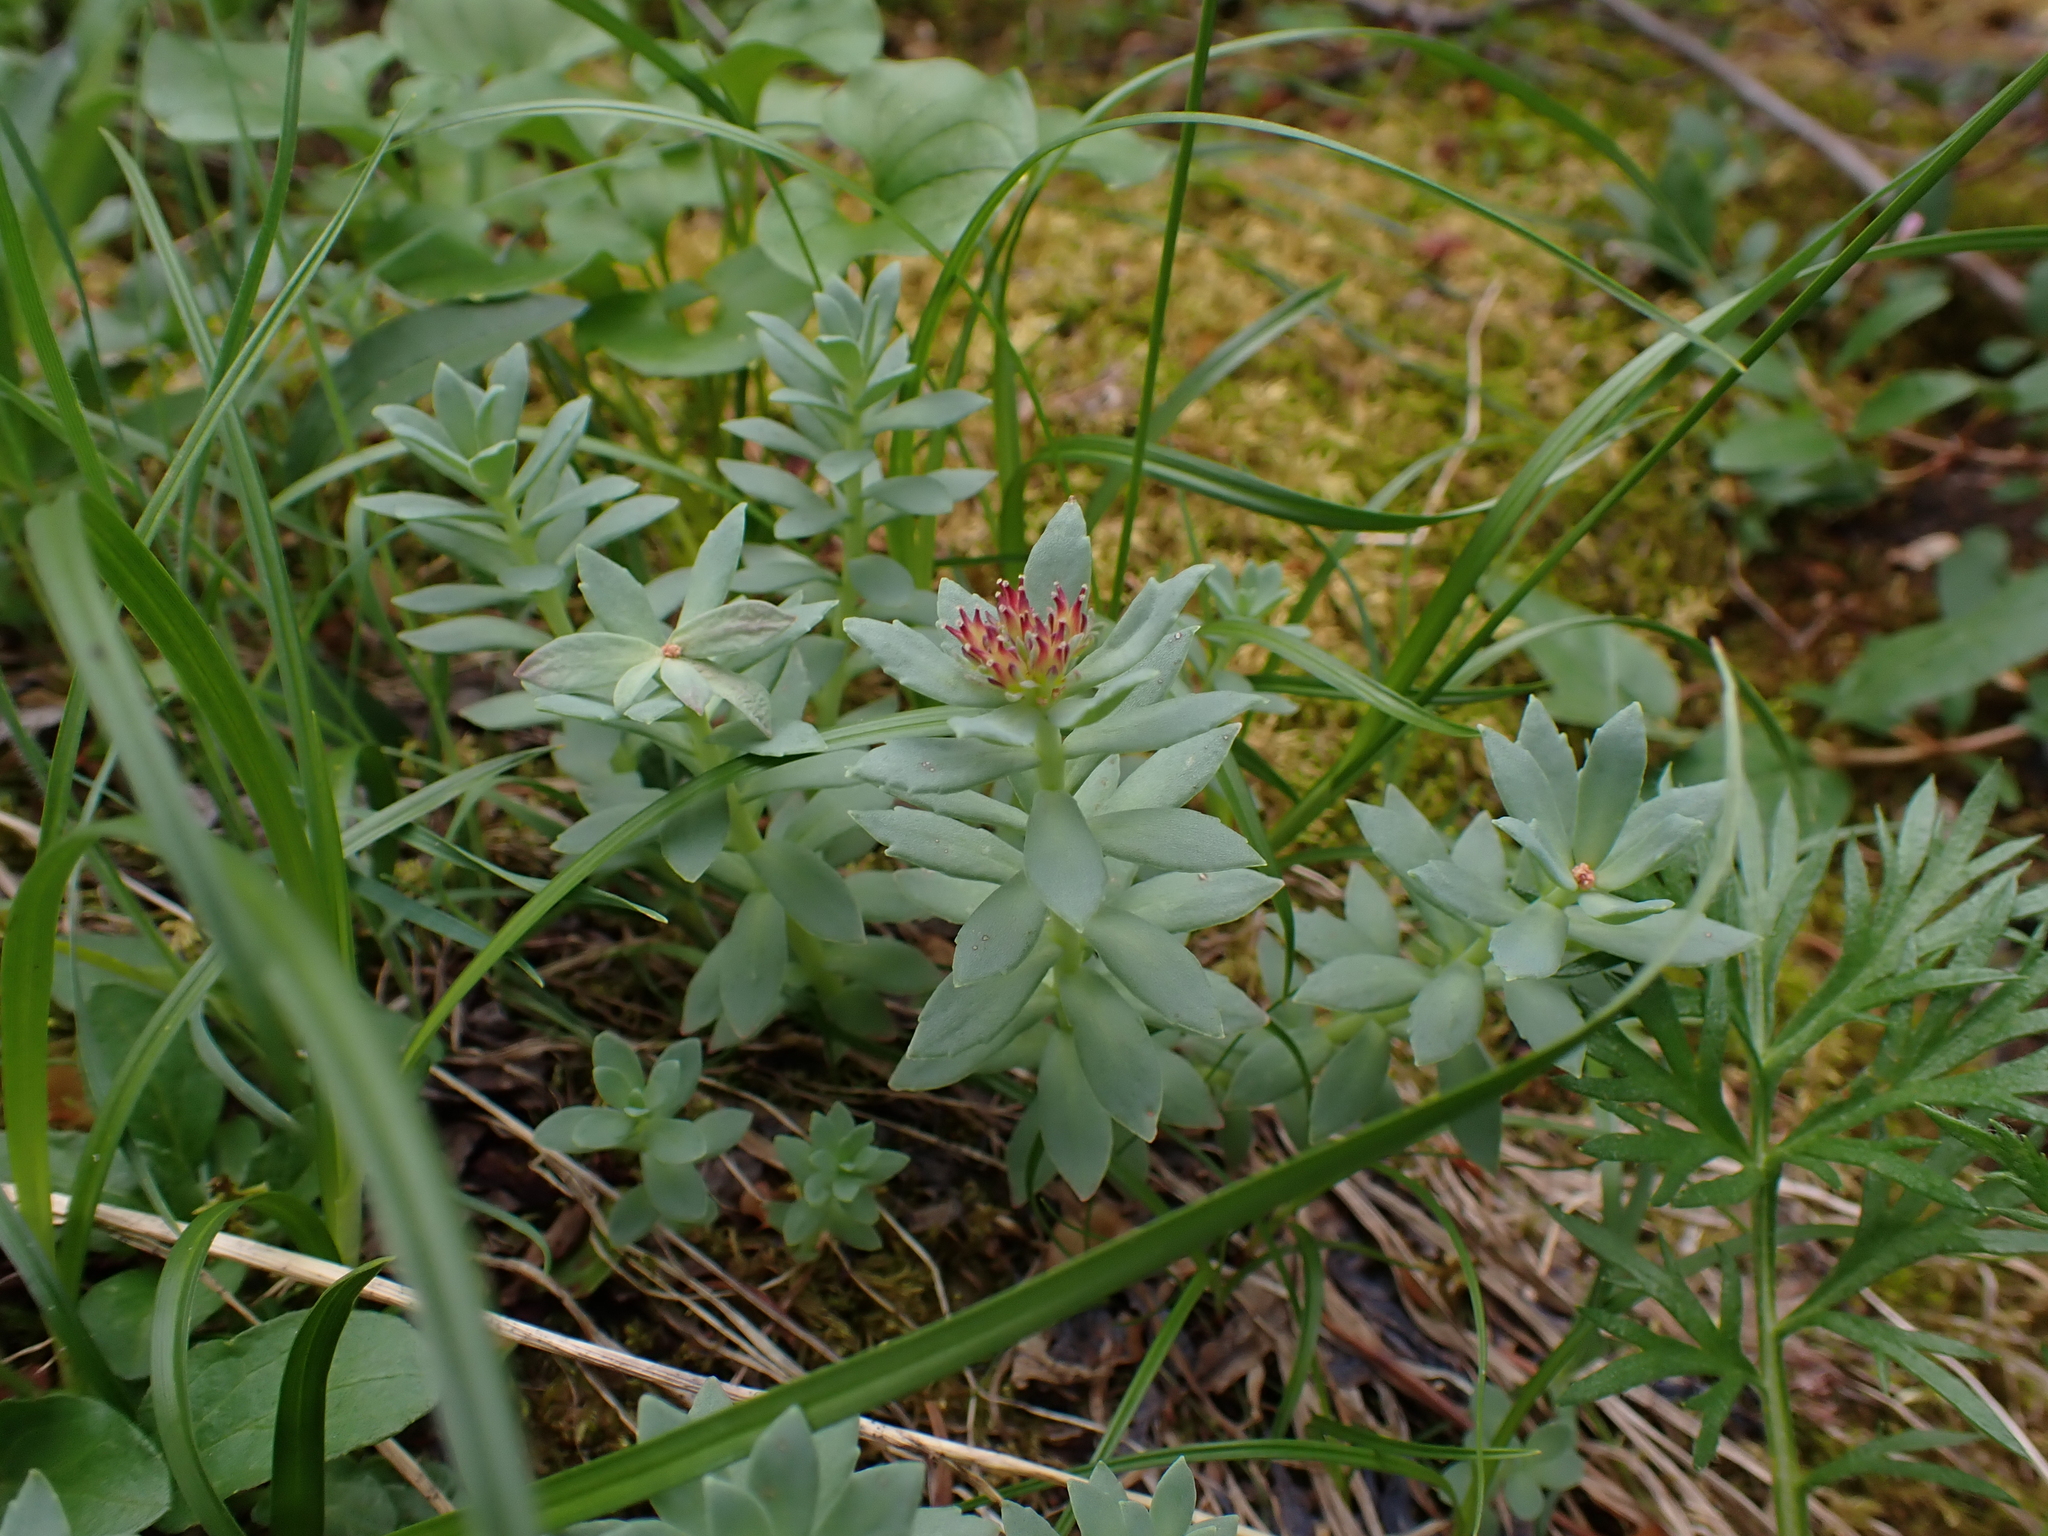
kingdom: Plantae
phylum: Tracheophyta
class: Magnoliopsida
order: Saxifragales
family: Crassulaceae
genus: Rhodiola
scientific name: Rhodiola integrifolia
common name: Western roseroot
